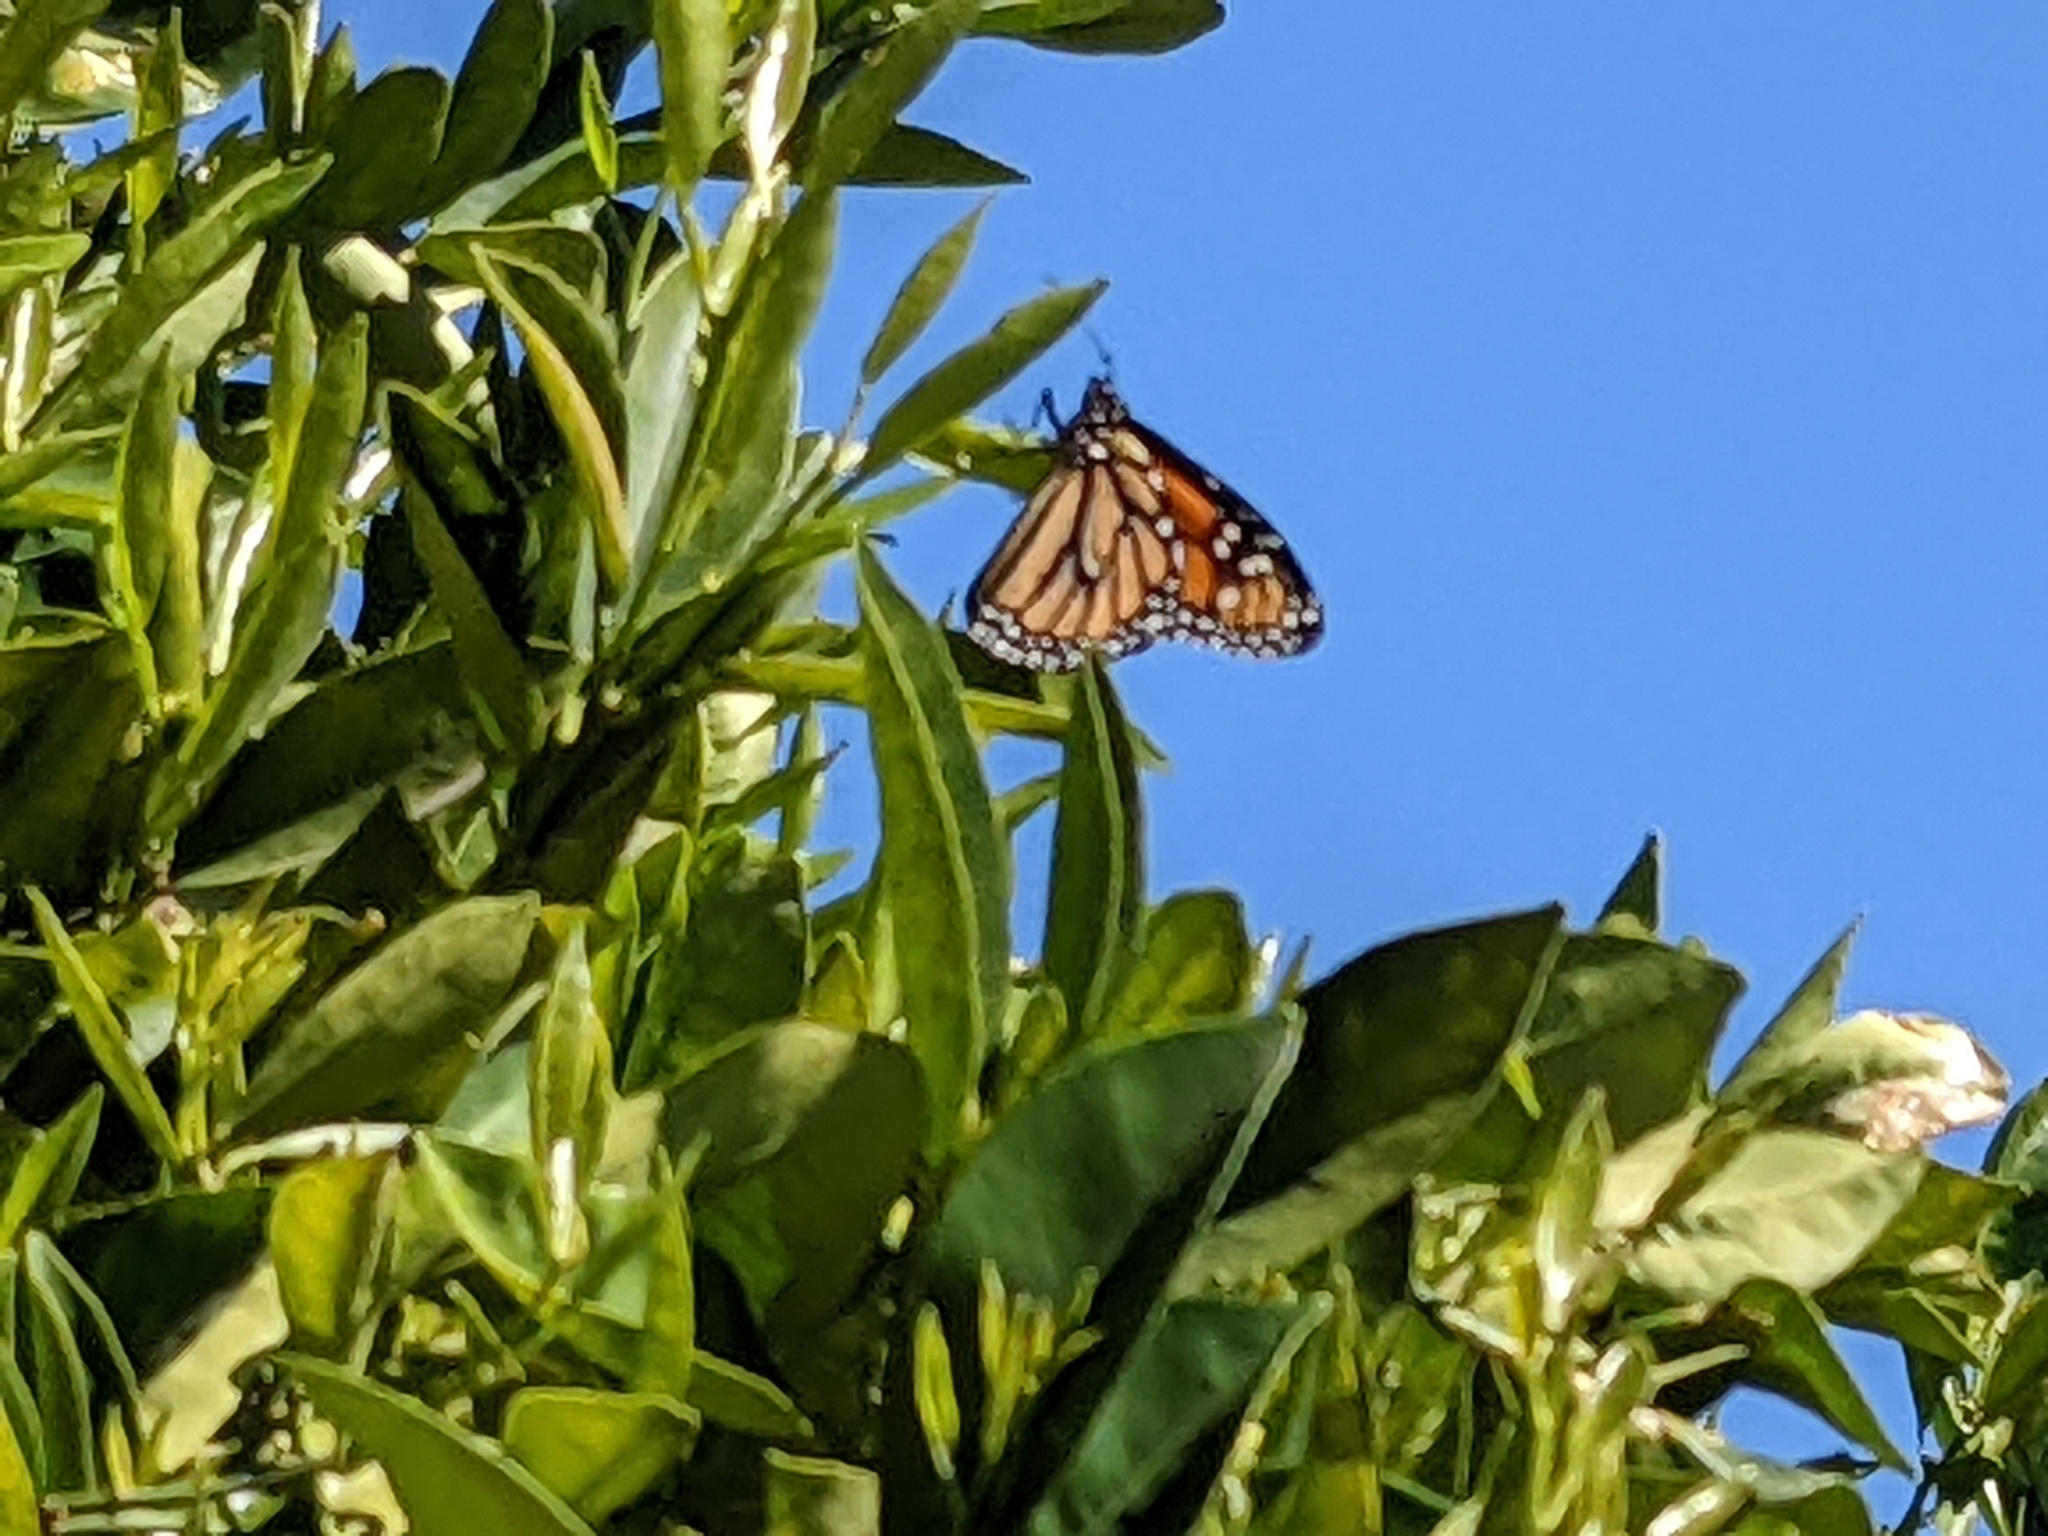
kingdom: Animalia
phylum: Arthropoda
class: Insecta
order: Lepidoptera
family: Nymphalidae
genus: Danaus
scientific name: Danaus plexippus
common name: Monarch
